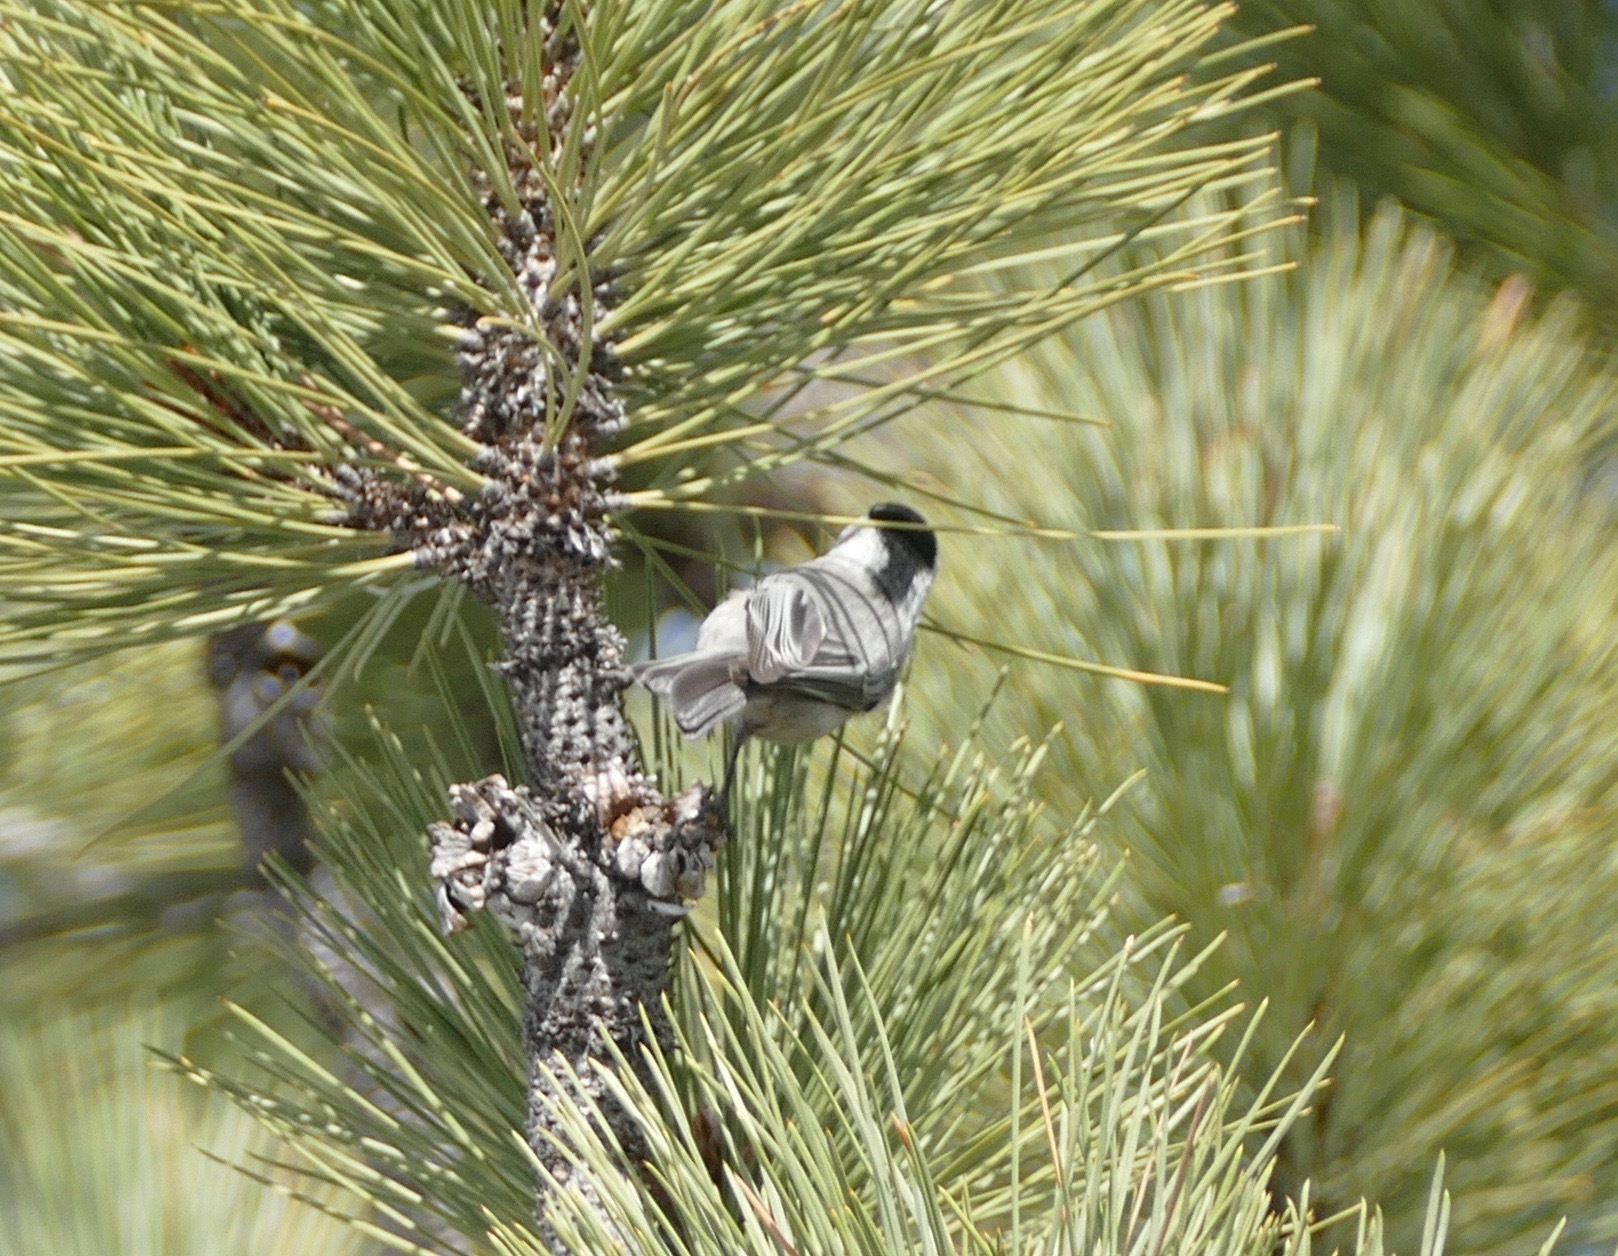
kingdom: Animalia
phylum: Chordata
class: Aves
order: Passeriformes
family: Paridae
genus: Poecile
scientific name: Poecile gambeli
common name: Mountain chickadee
